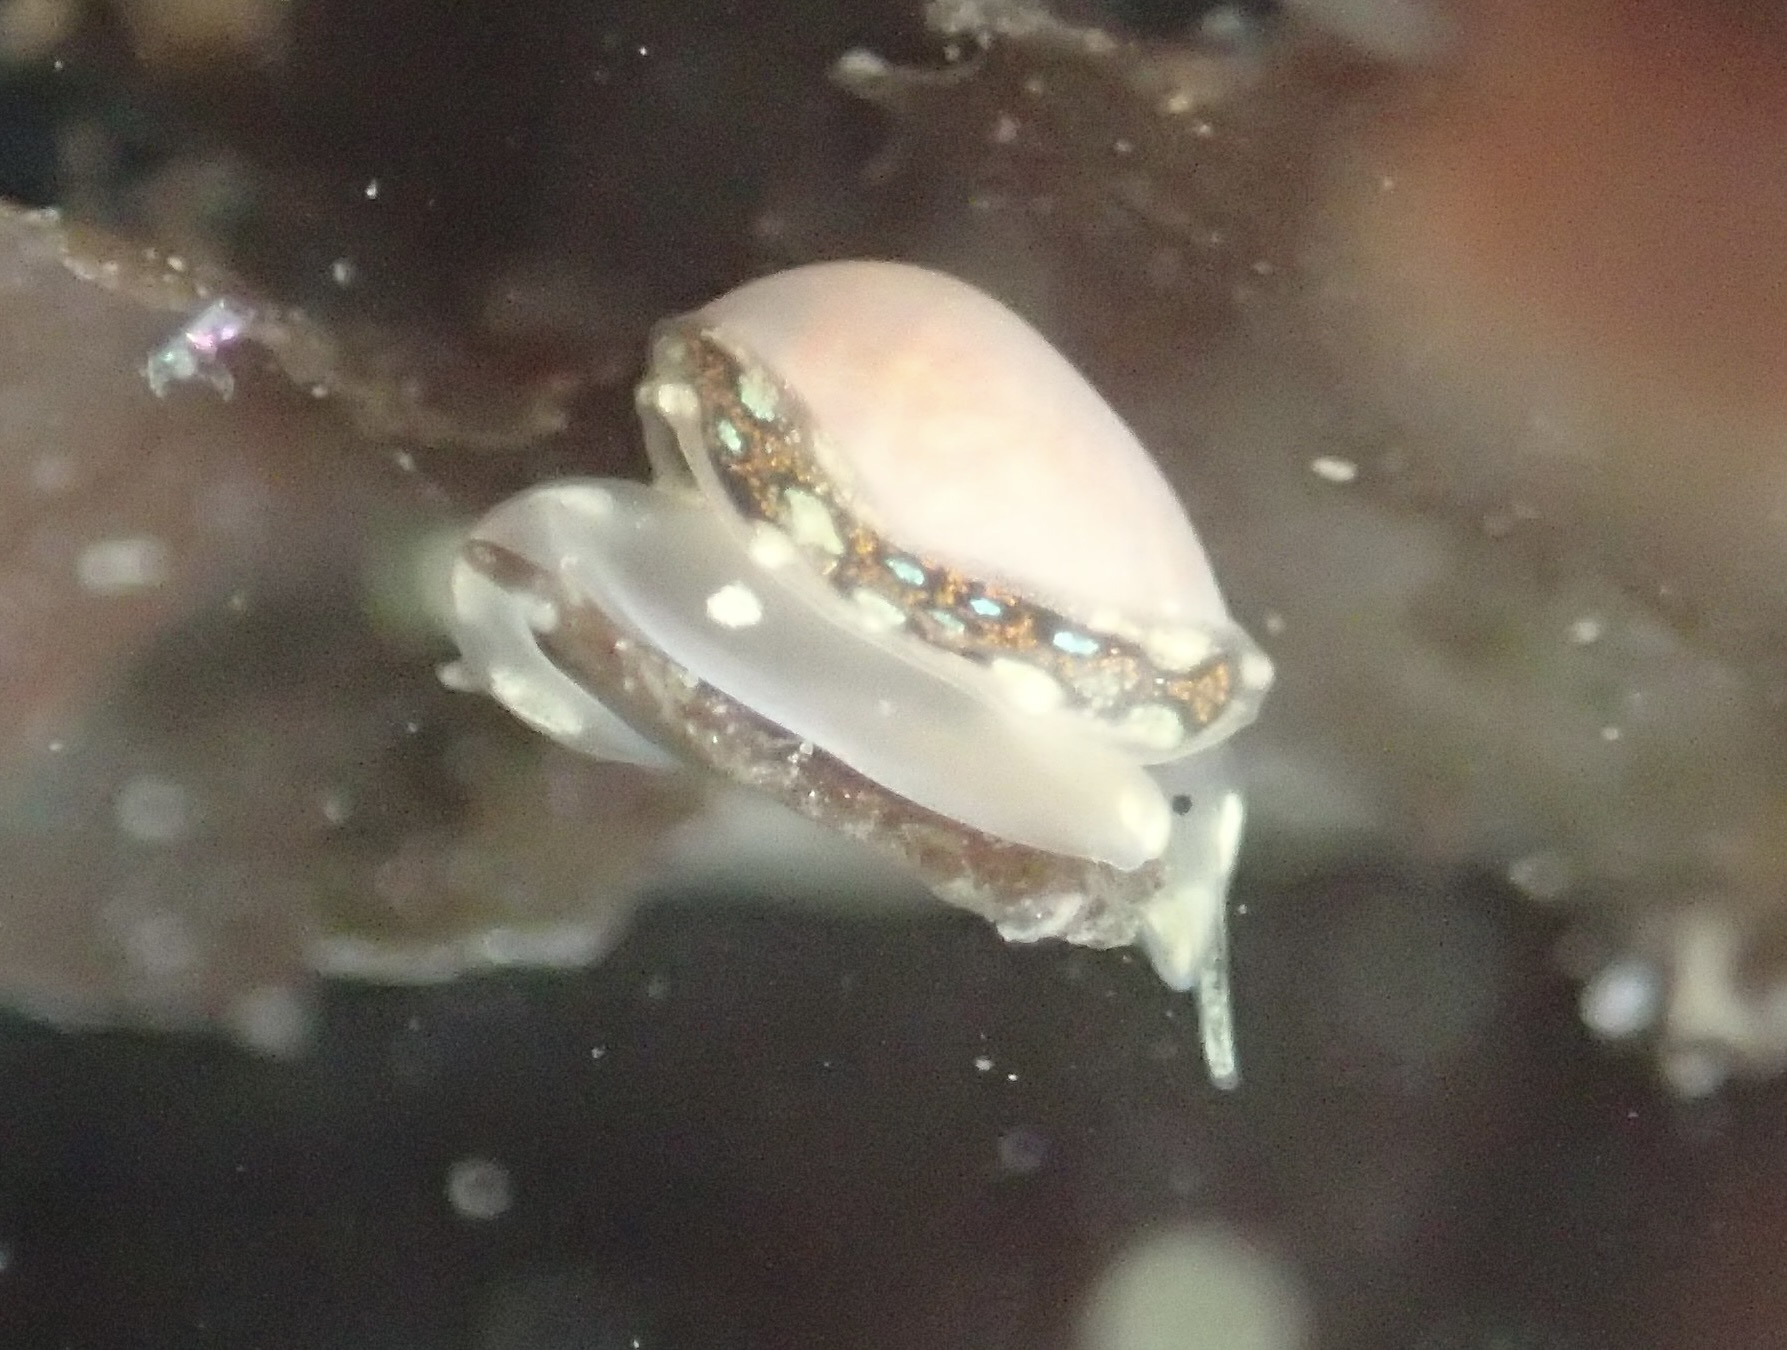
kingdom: Animalia
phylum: Mollusca
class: Gastropoda
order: Neogastropoda
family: Granulinidae
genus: Granulina
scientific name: Granulina margaritula
